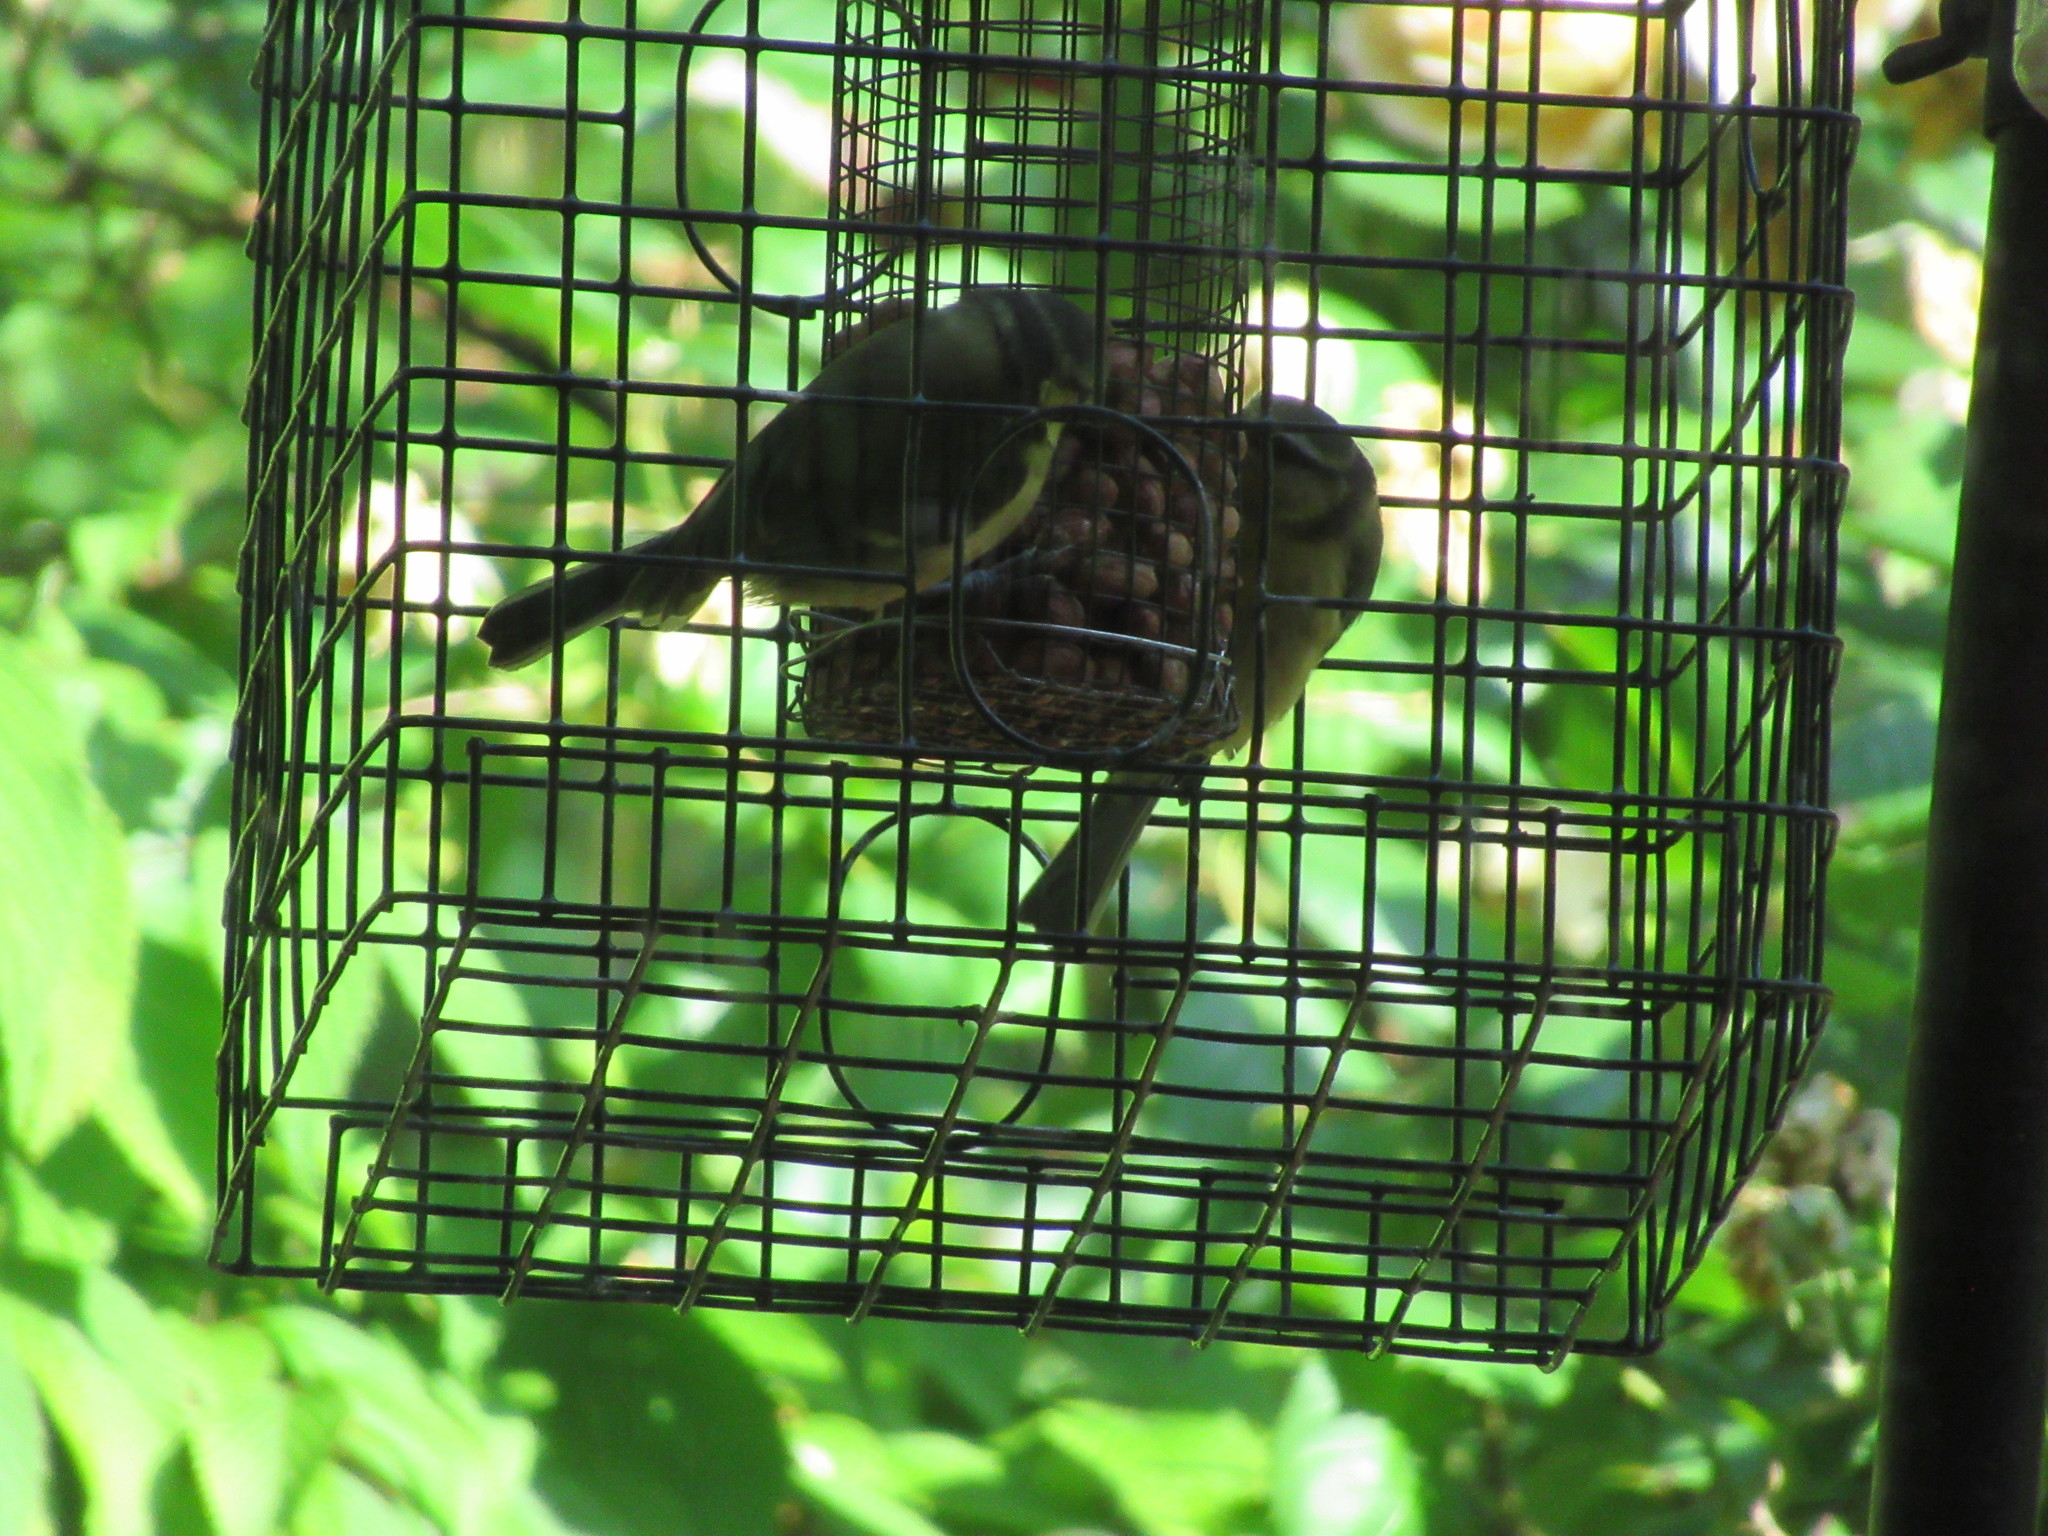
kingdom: Animalia
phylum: Chordata
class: Aves
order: Passeriformes
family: Paridae
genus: Cyanistes
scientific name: Cyanistes caeruleus
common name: Eurasian blue tit
